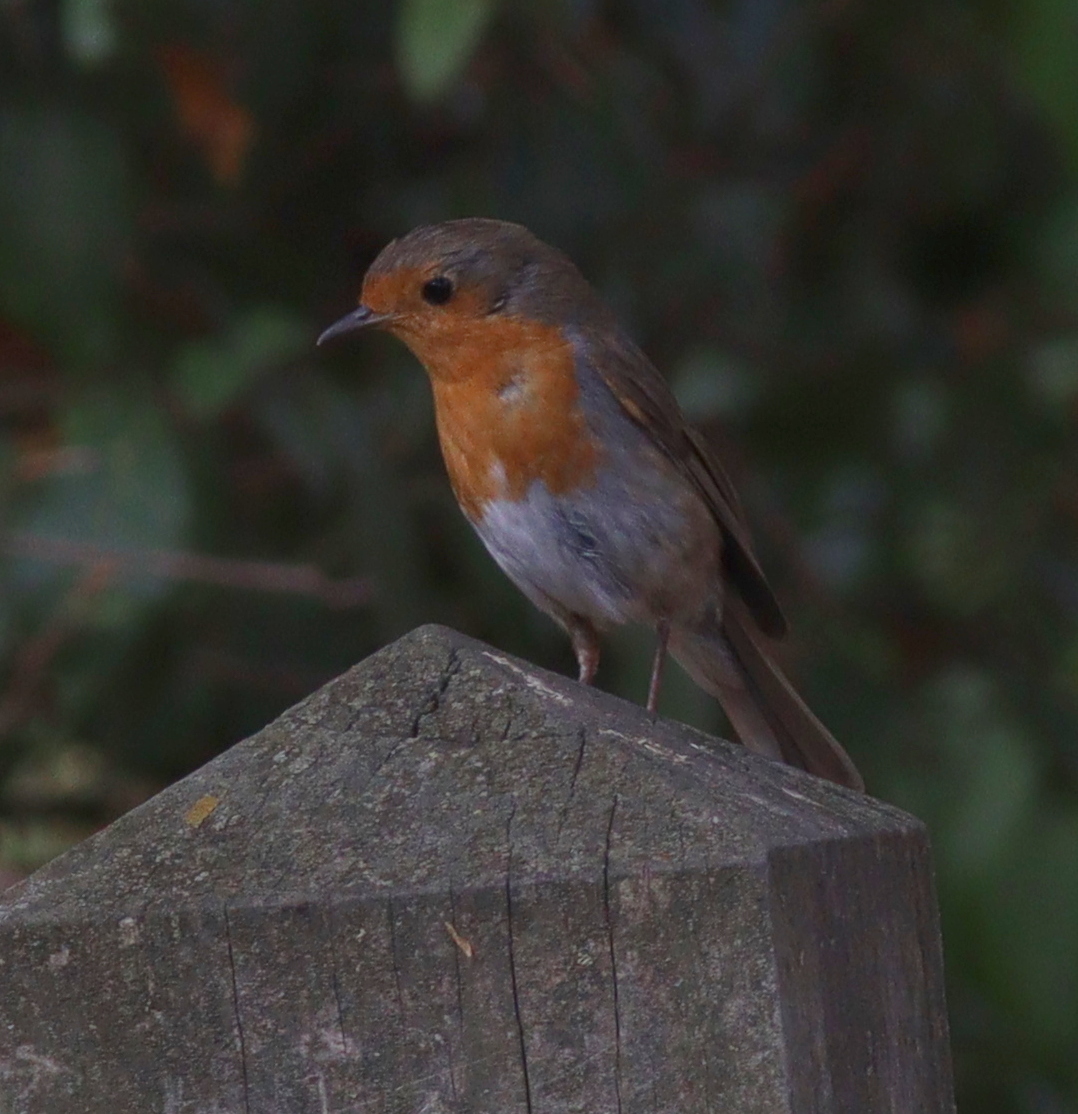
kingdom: Animalia
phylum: Chordata
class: Aves
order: Passeriformes
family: Muscicapidae
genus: Erithacus
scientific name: Erithacus rubecula
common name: European robin
